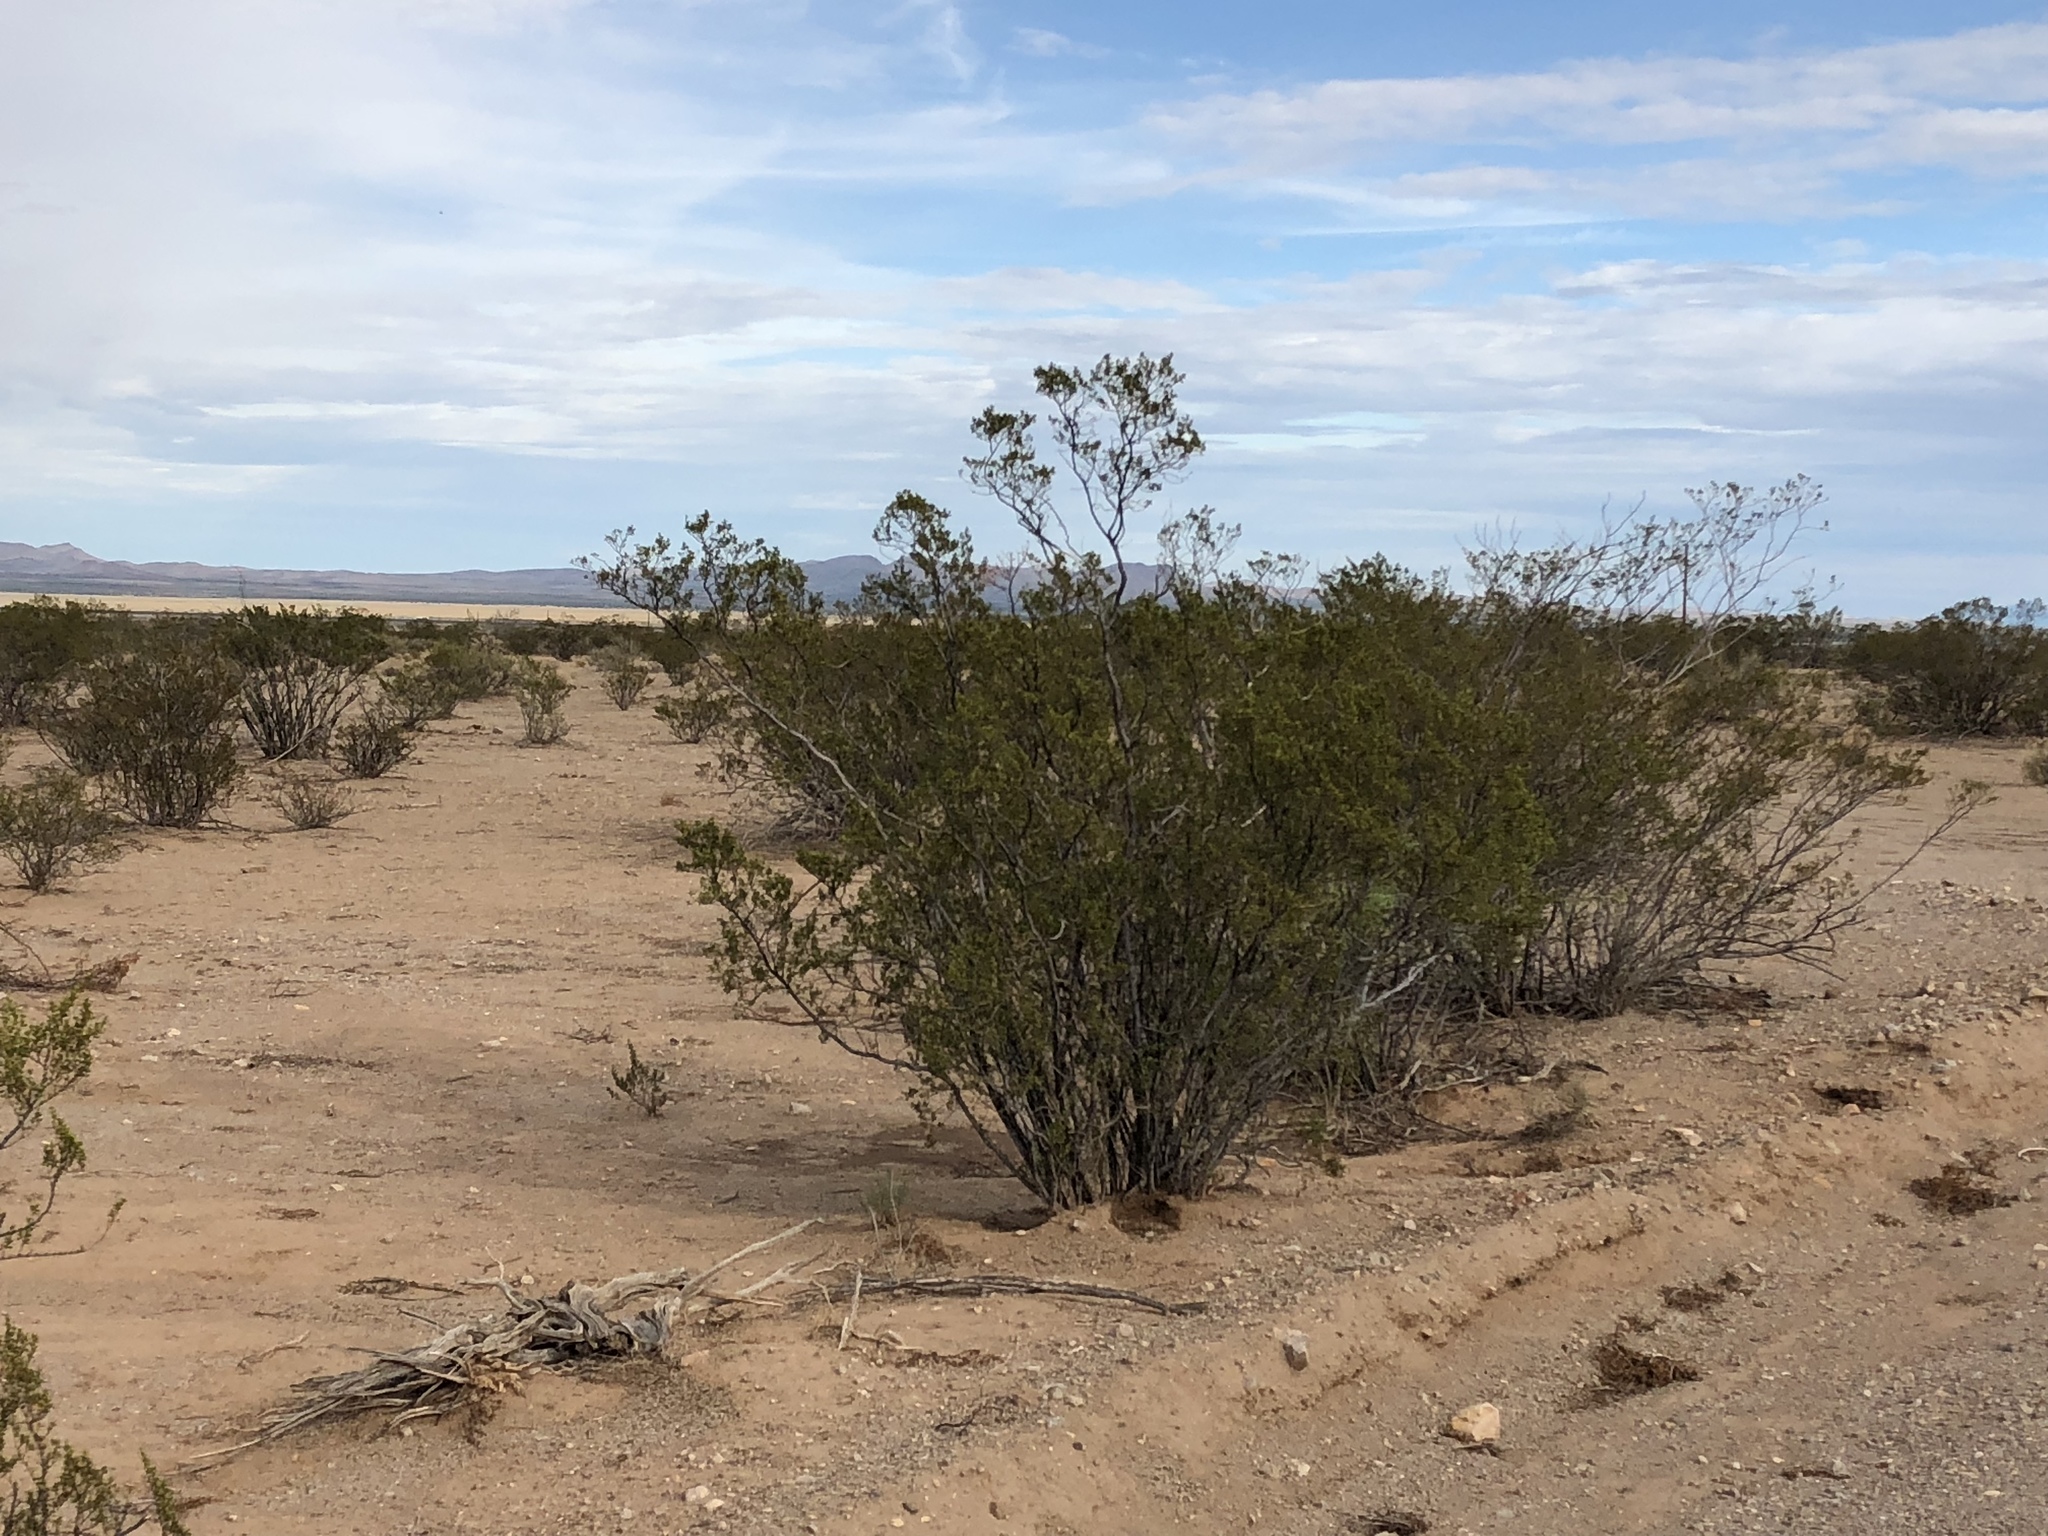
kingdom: Plantae
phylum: Tracheophyta
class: Magnoliopsida
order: Zygophyllales
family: Zygophyllaceae
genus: Larrea
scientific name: Larrea tridentata
